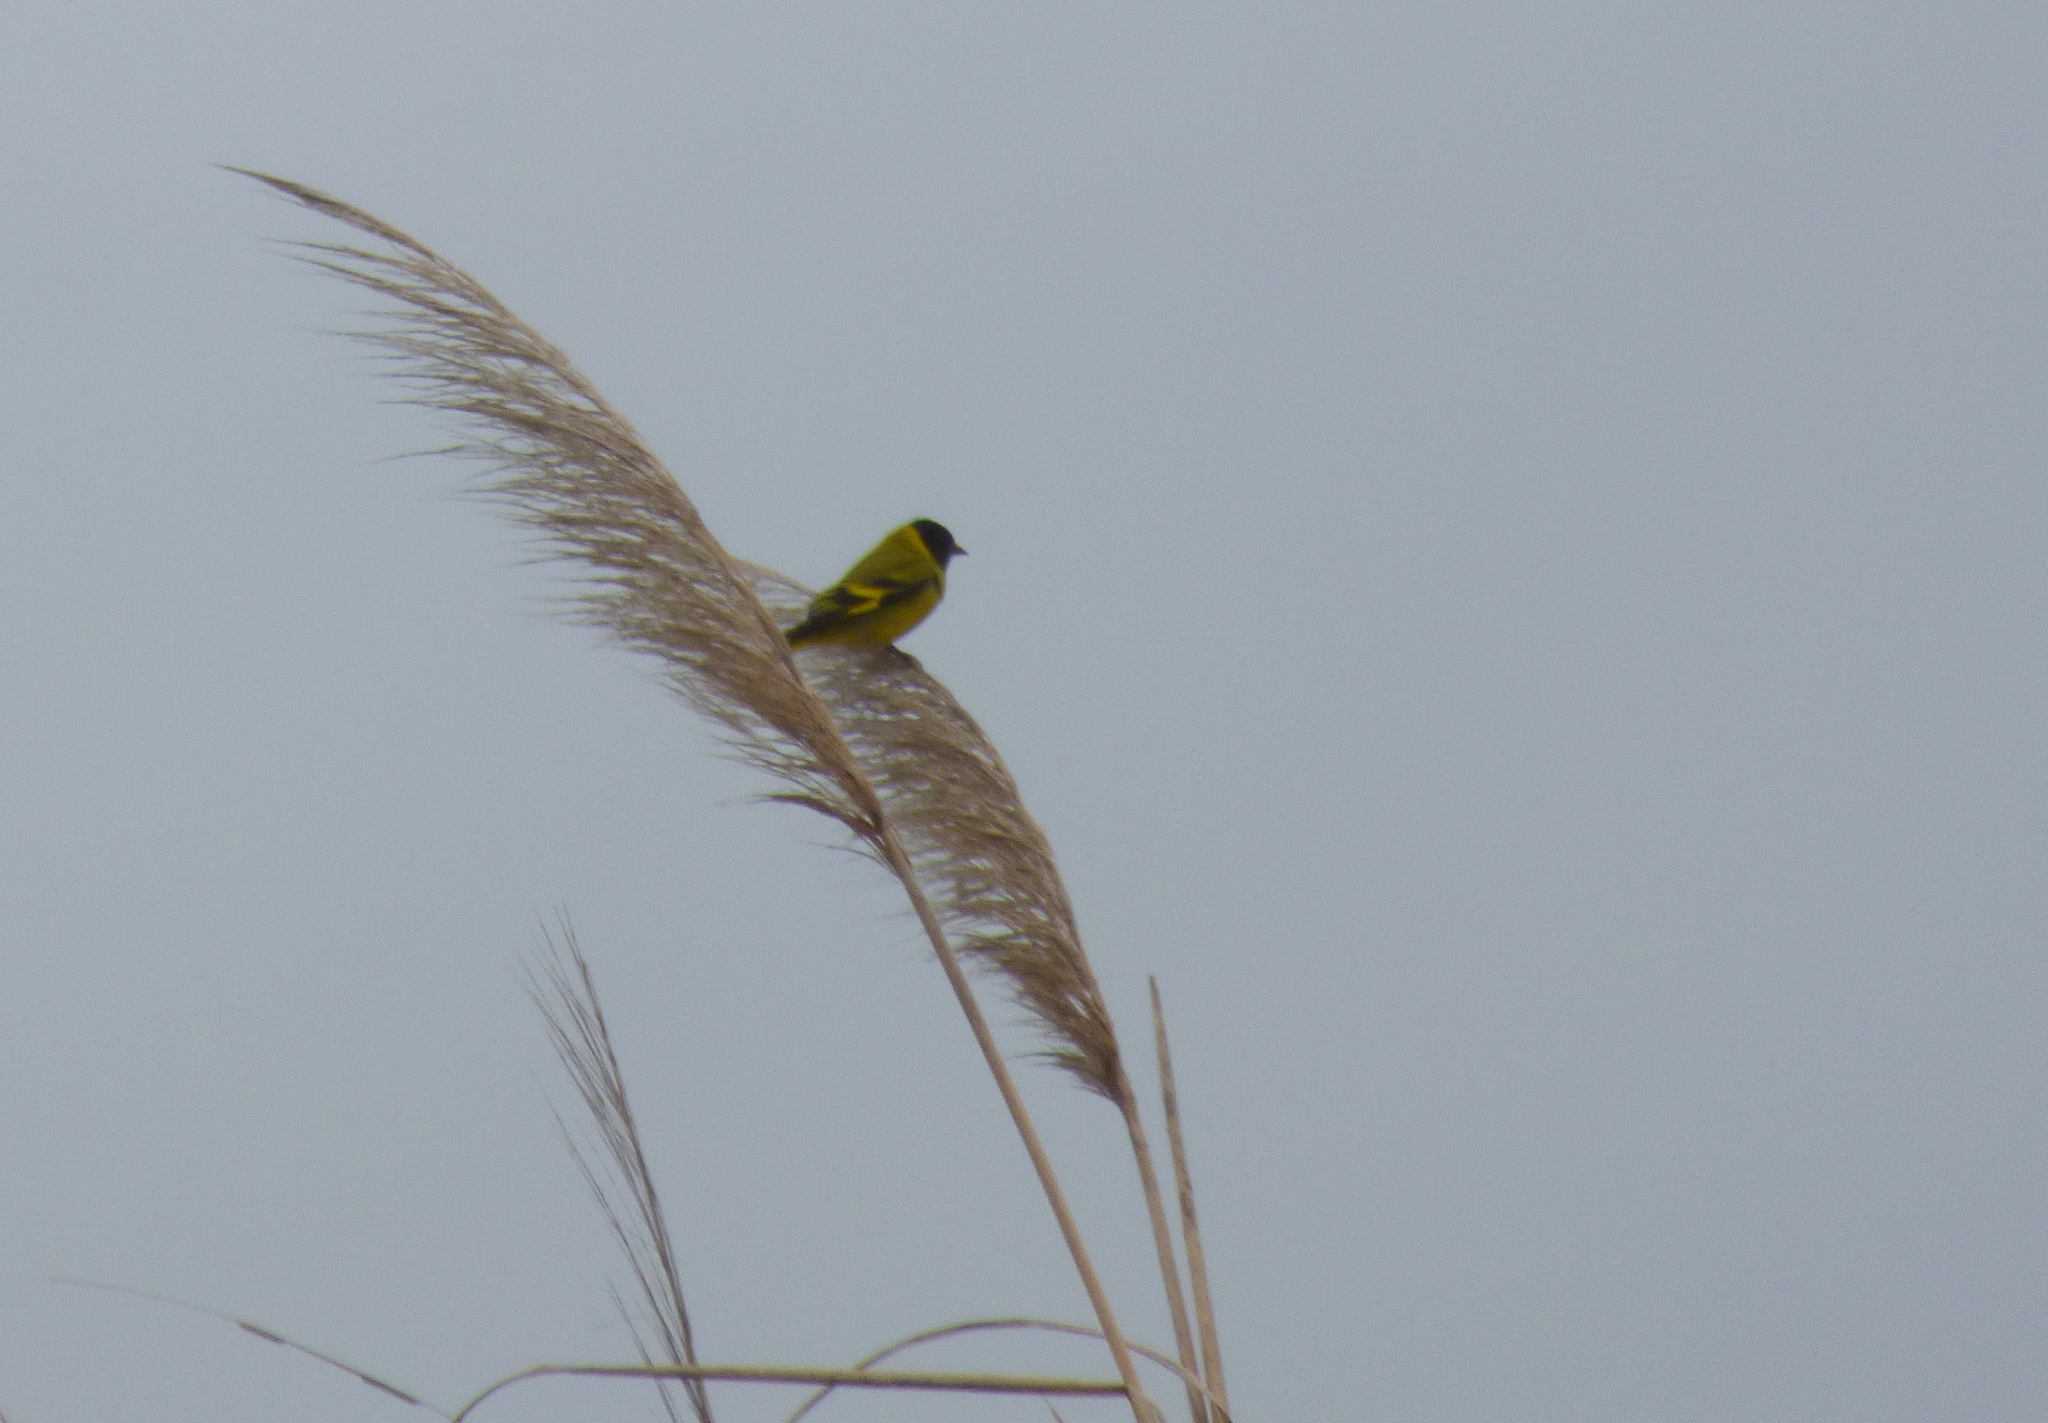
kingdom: Animalia
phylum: Chordata
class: Aves
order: Passeriformes
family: Fringillidae
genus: Spinus
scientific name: Spinus magellanicus
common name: Hooded siskin
